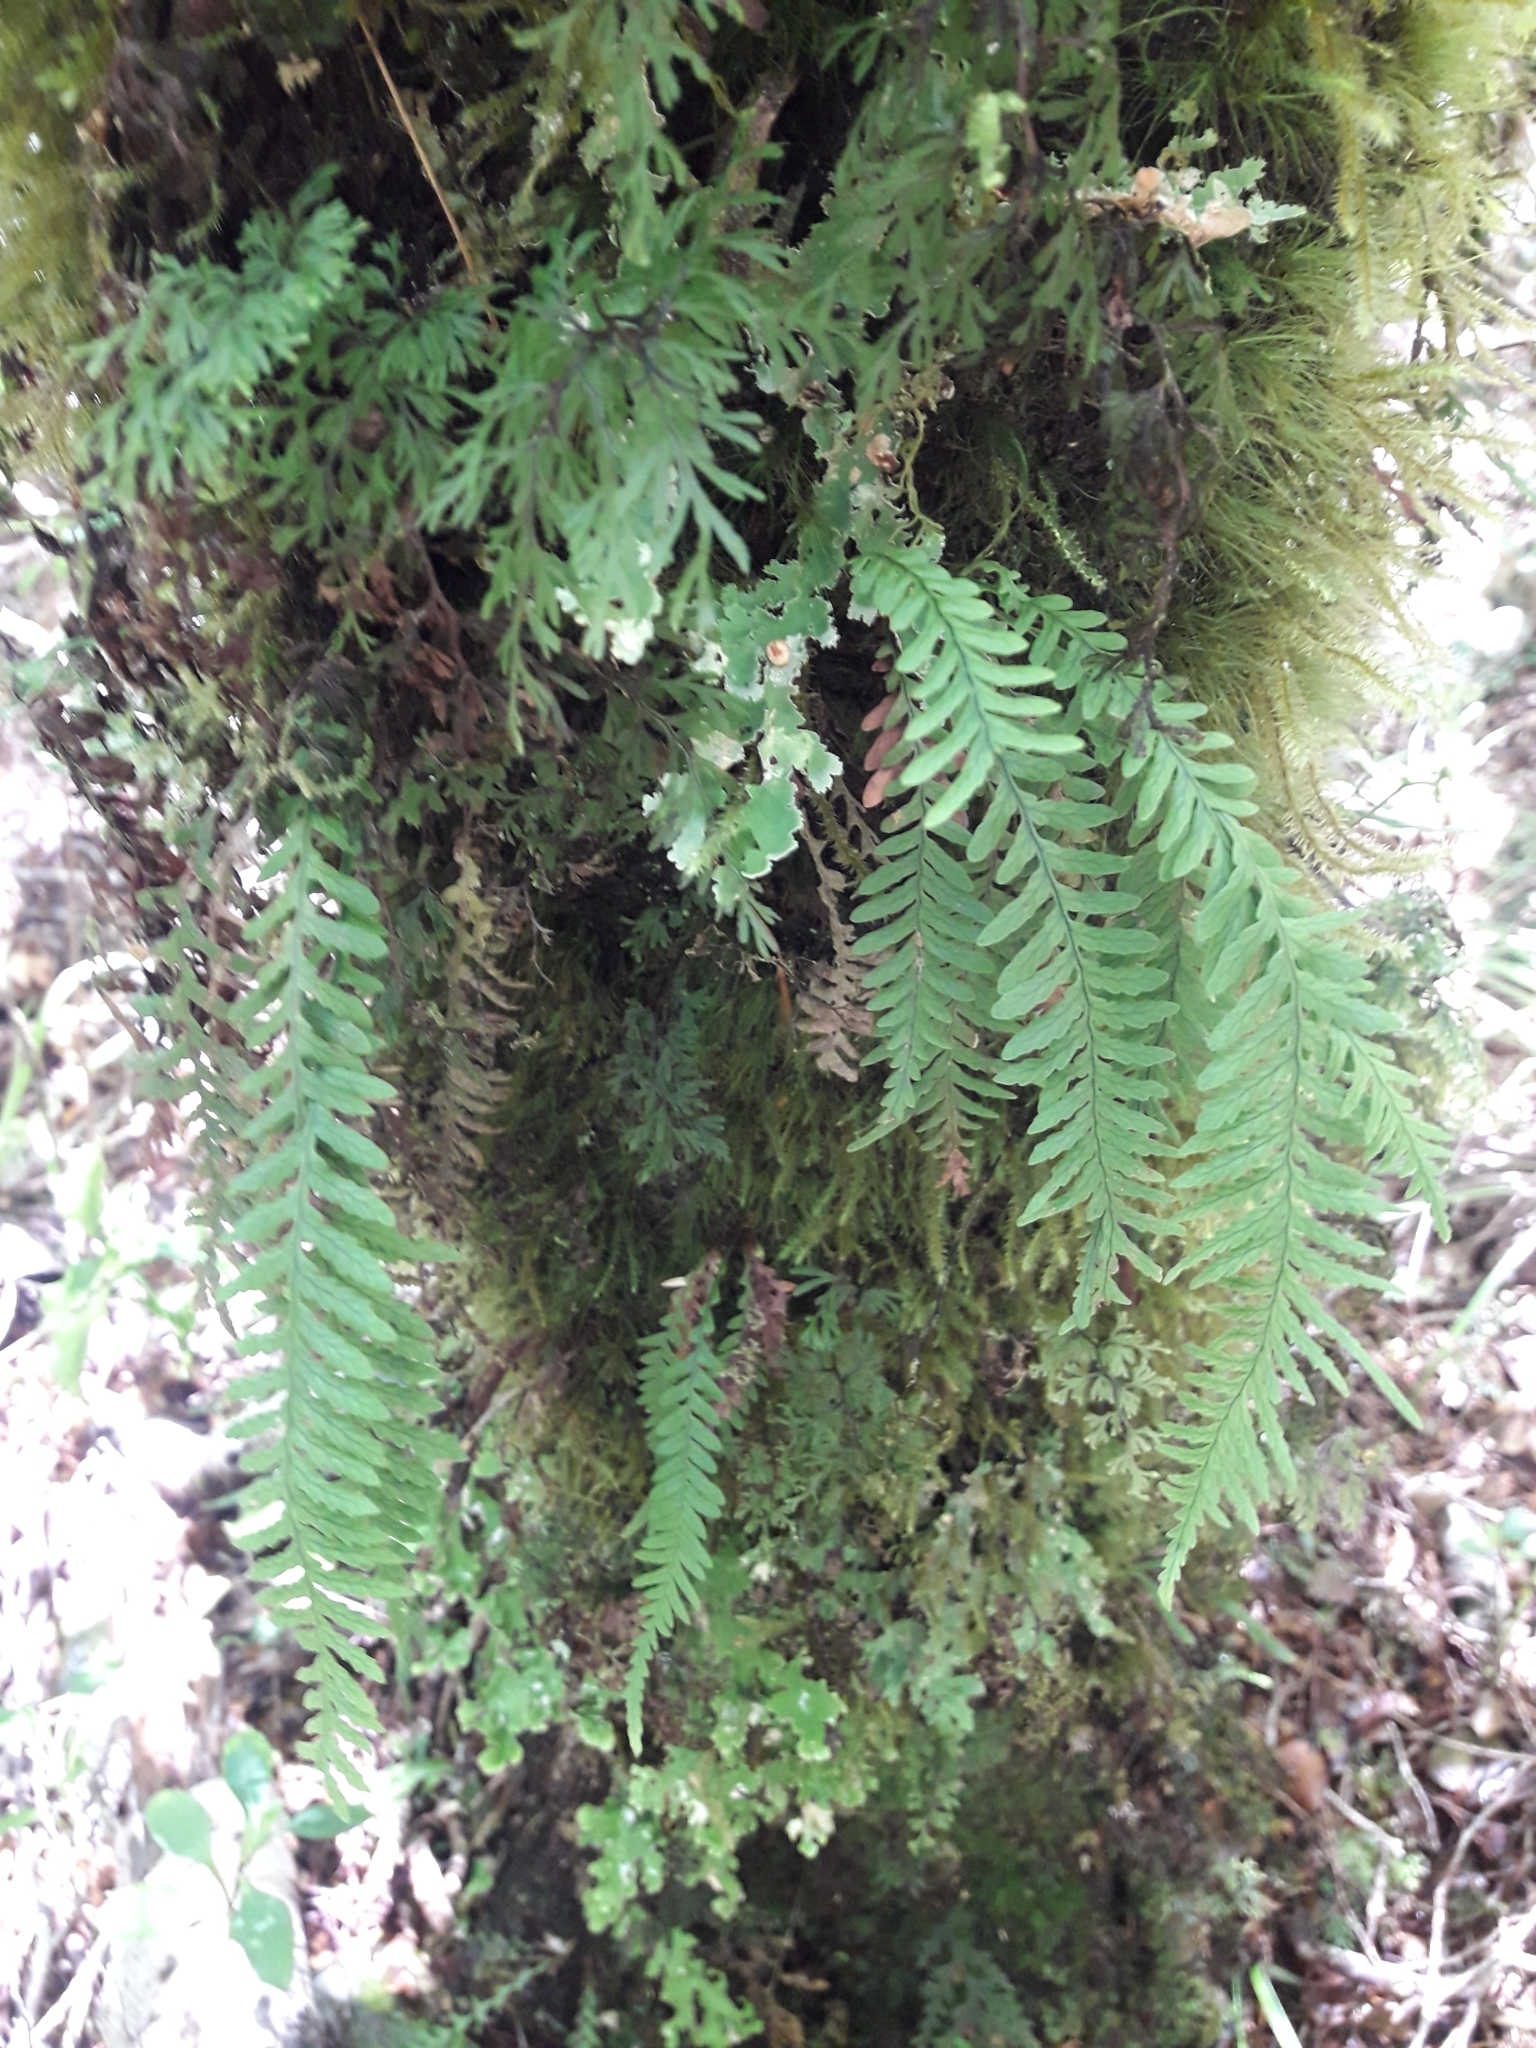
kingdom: Plantae
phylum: Tracheophyta
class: Polypodiopsida
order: Polypodiales
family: Polypodiaceae
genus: Notogrammitis
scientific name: Notogrammitis heterophylla
